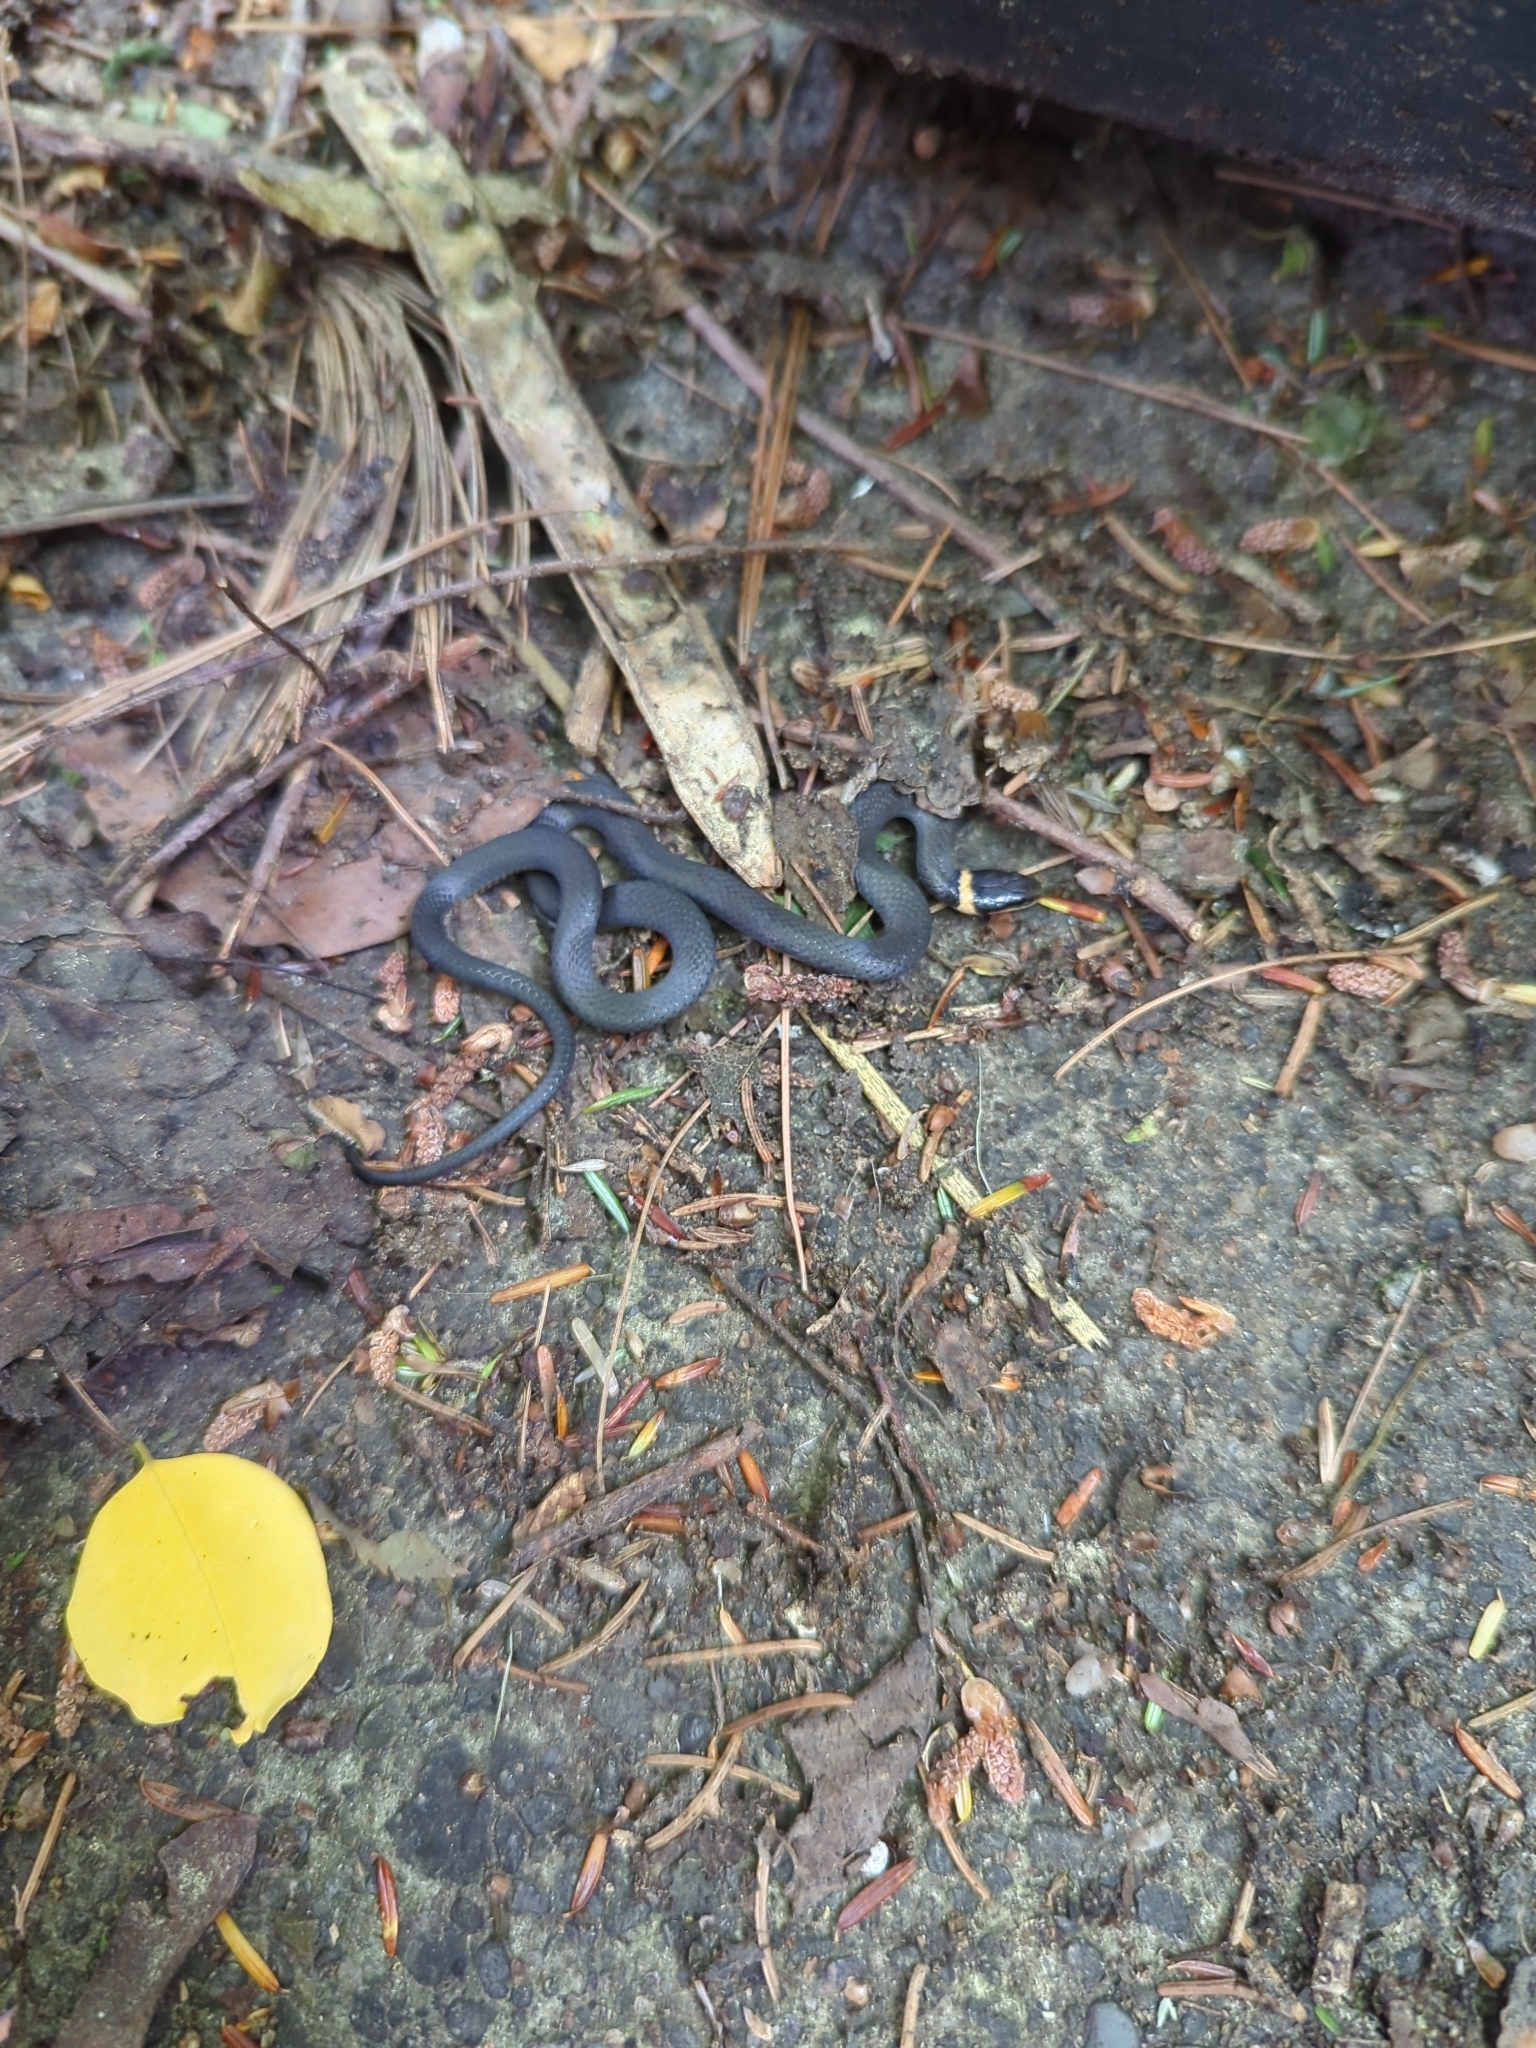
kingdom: Animalia
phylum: Chordata
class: Squamata
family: Colubridae
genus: Diadophis
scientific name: Diadophis punctatus
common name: Ringneck snake
